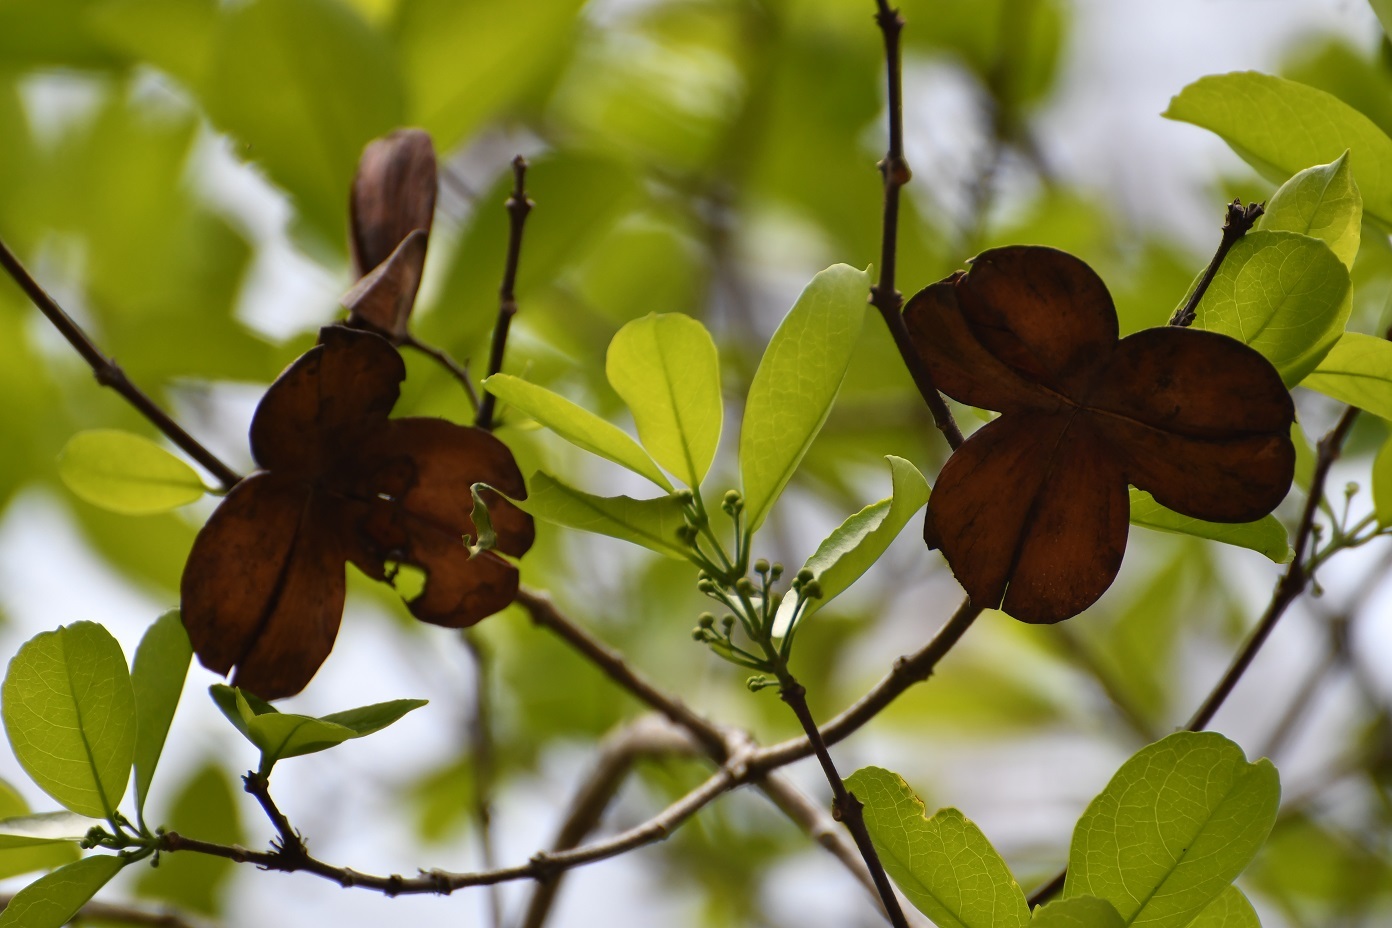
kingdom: Plantae
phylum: Tracheophyta
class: Magnoliopsida
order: Celastrales
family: Celastraceae
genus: Semialarium
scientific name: Semialarium mexicanum
